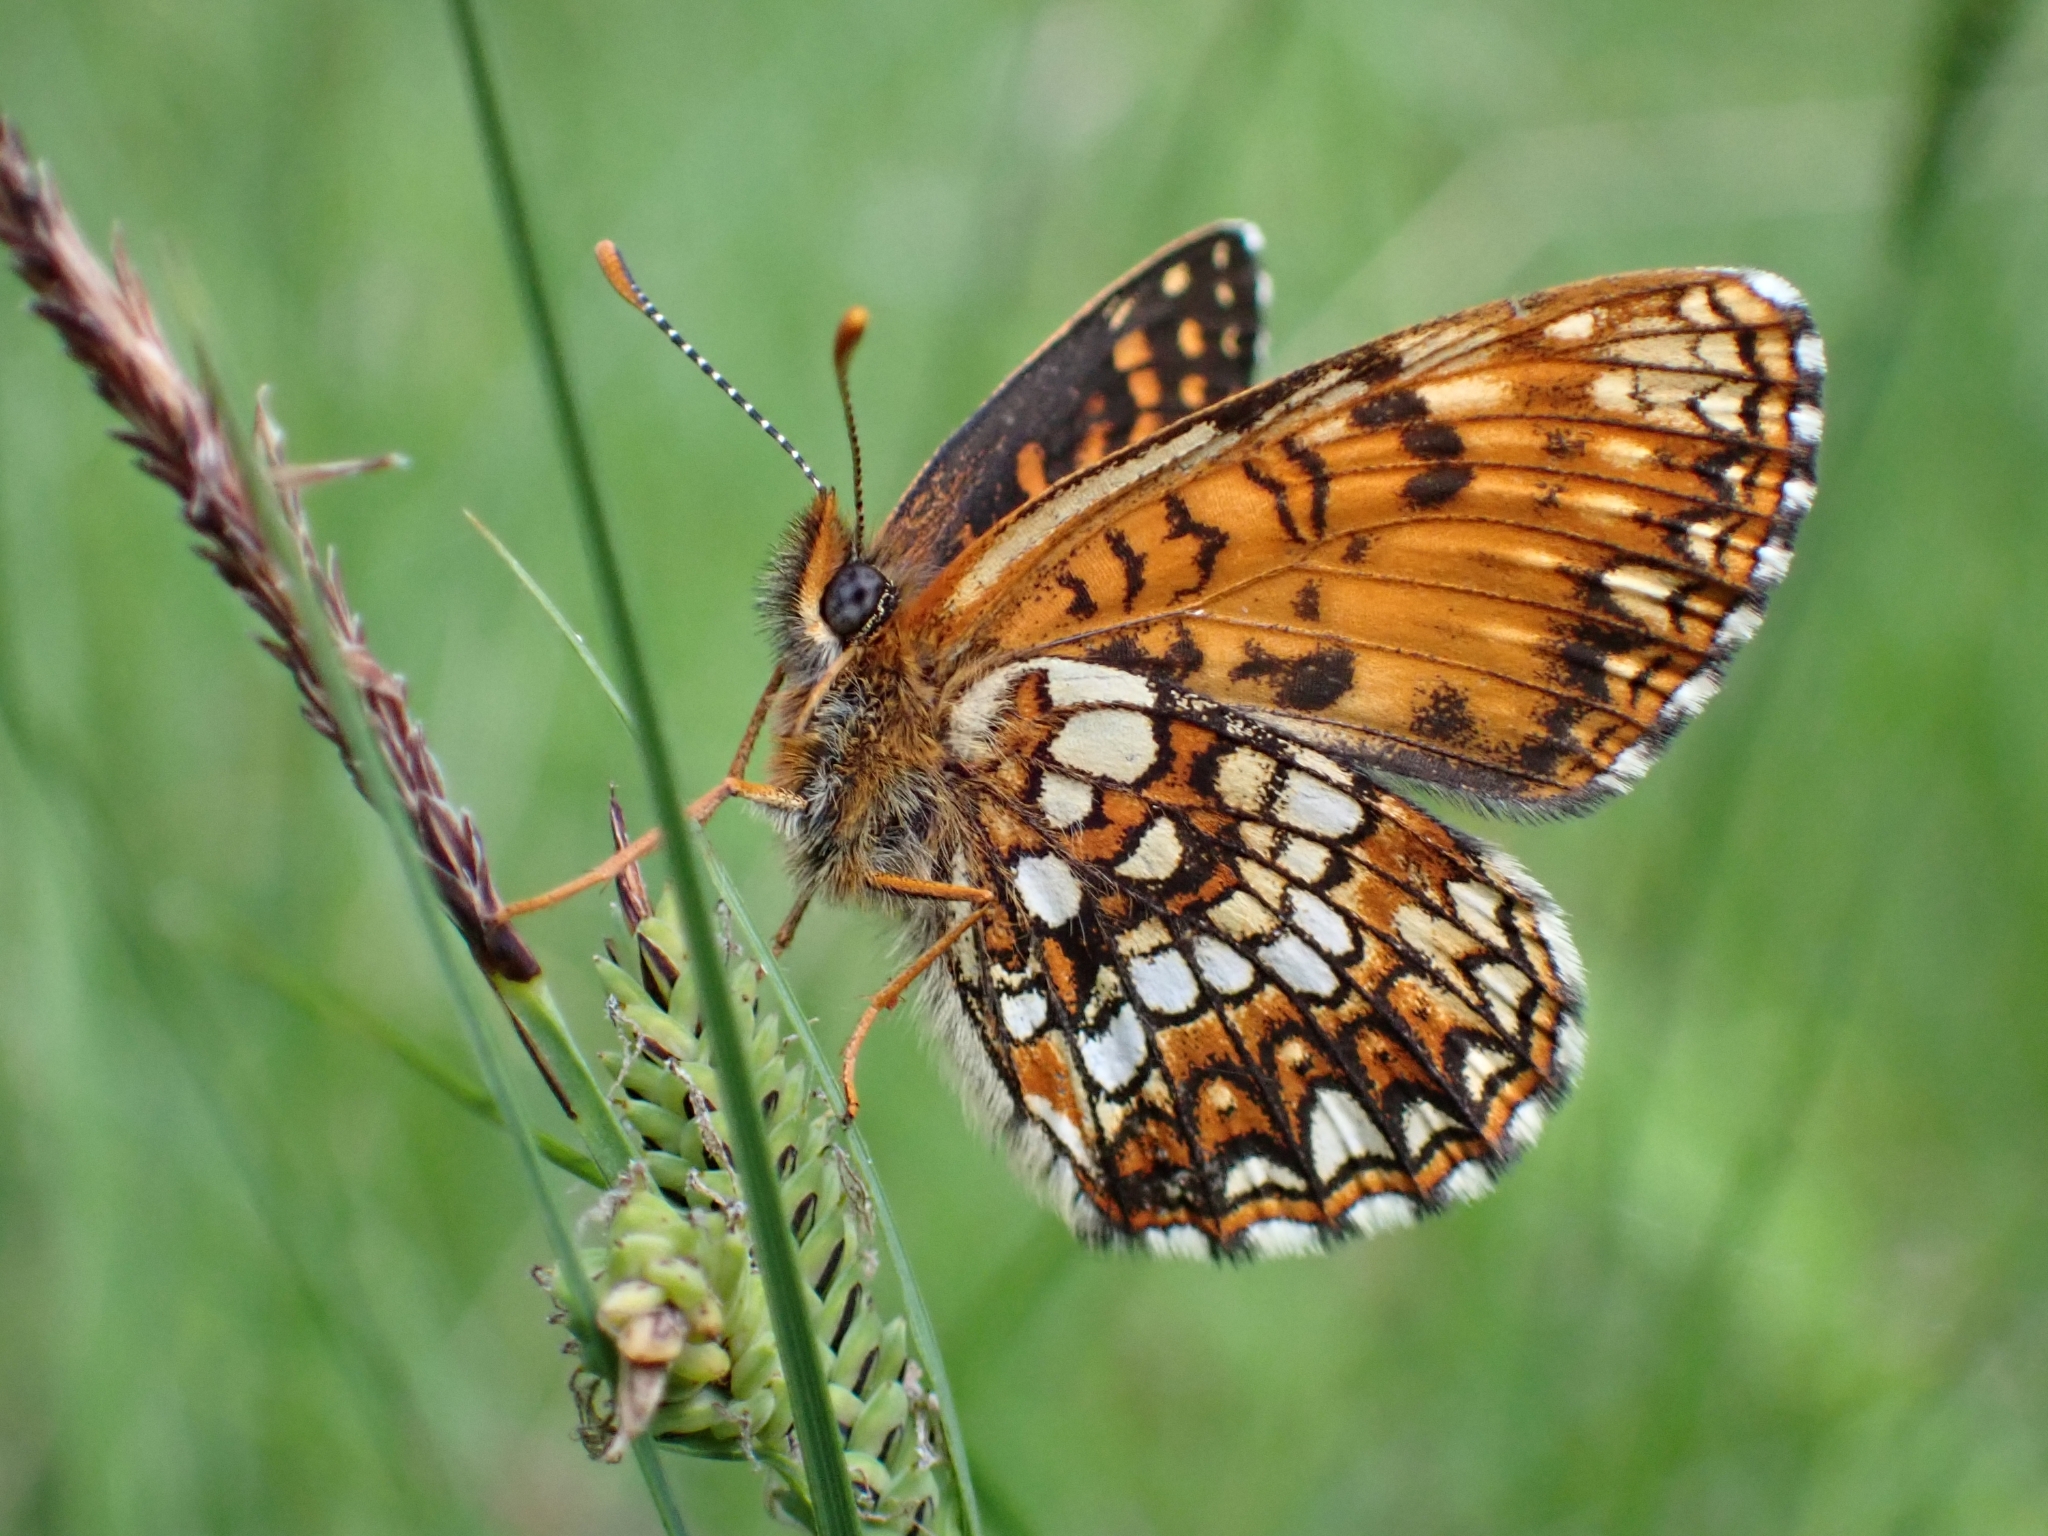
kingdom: Animalia
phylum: Arthropoda
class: Insecta
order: Lepidoptera
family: Nymphalidae
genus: Melitaea
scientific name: Melitaea diamina
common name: False heath fritillary
